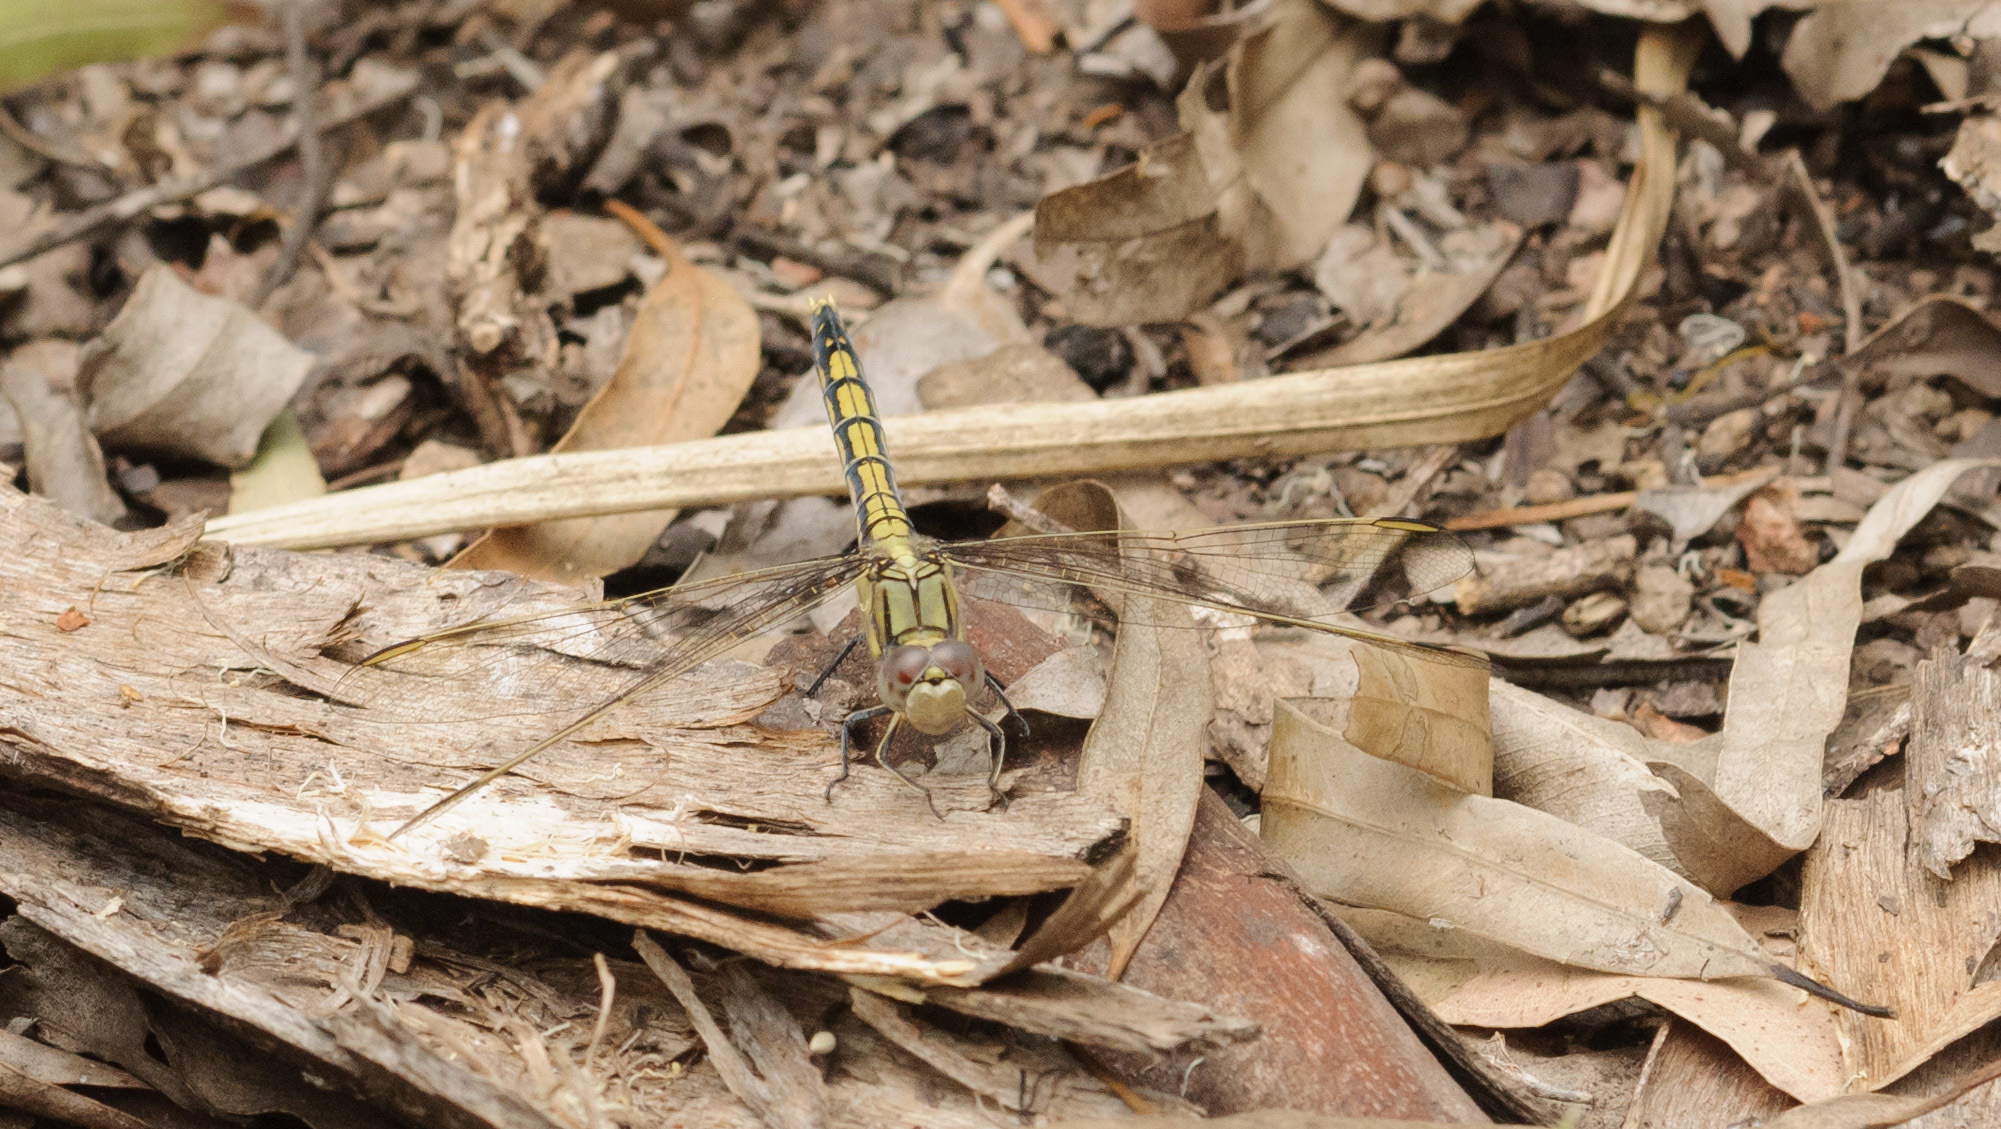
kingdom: Animalia
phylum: Arthropoda
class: Insecta
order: Odonata
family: Libellulidae
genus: Orthetrum
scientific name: Orthetrum caledonicum
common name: Blue skimmer
